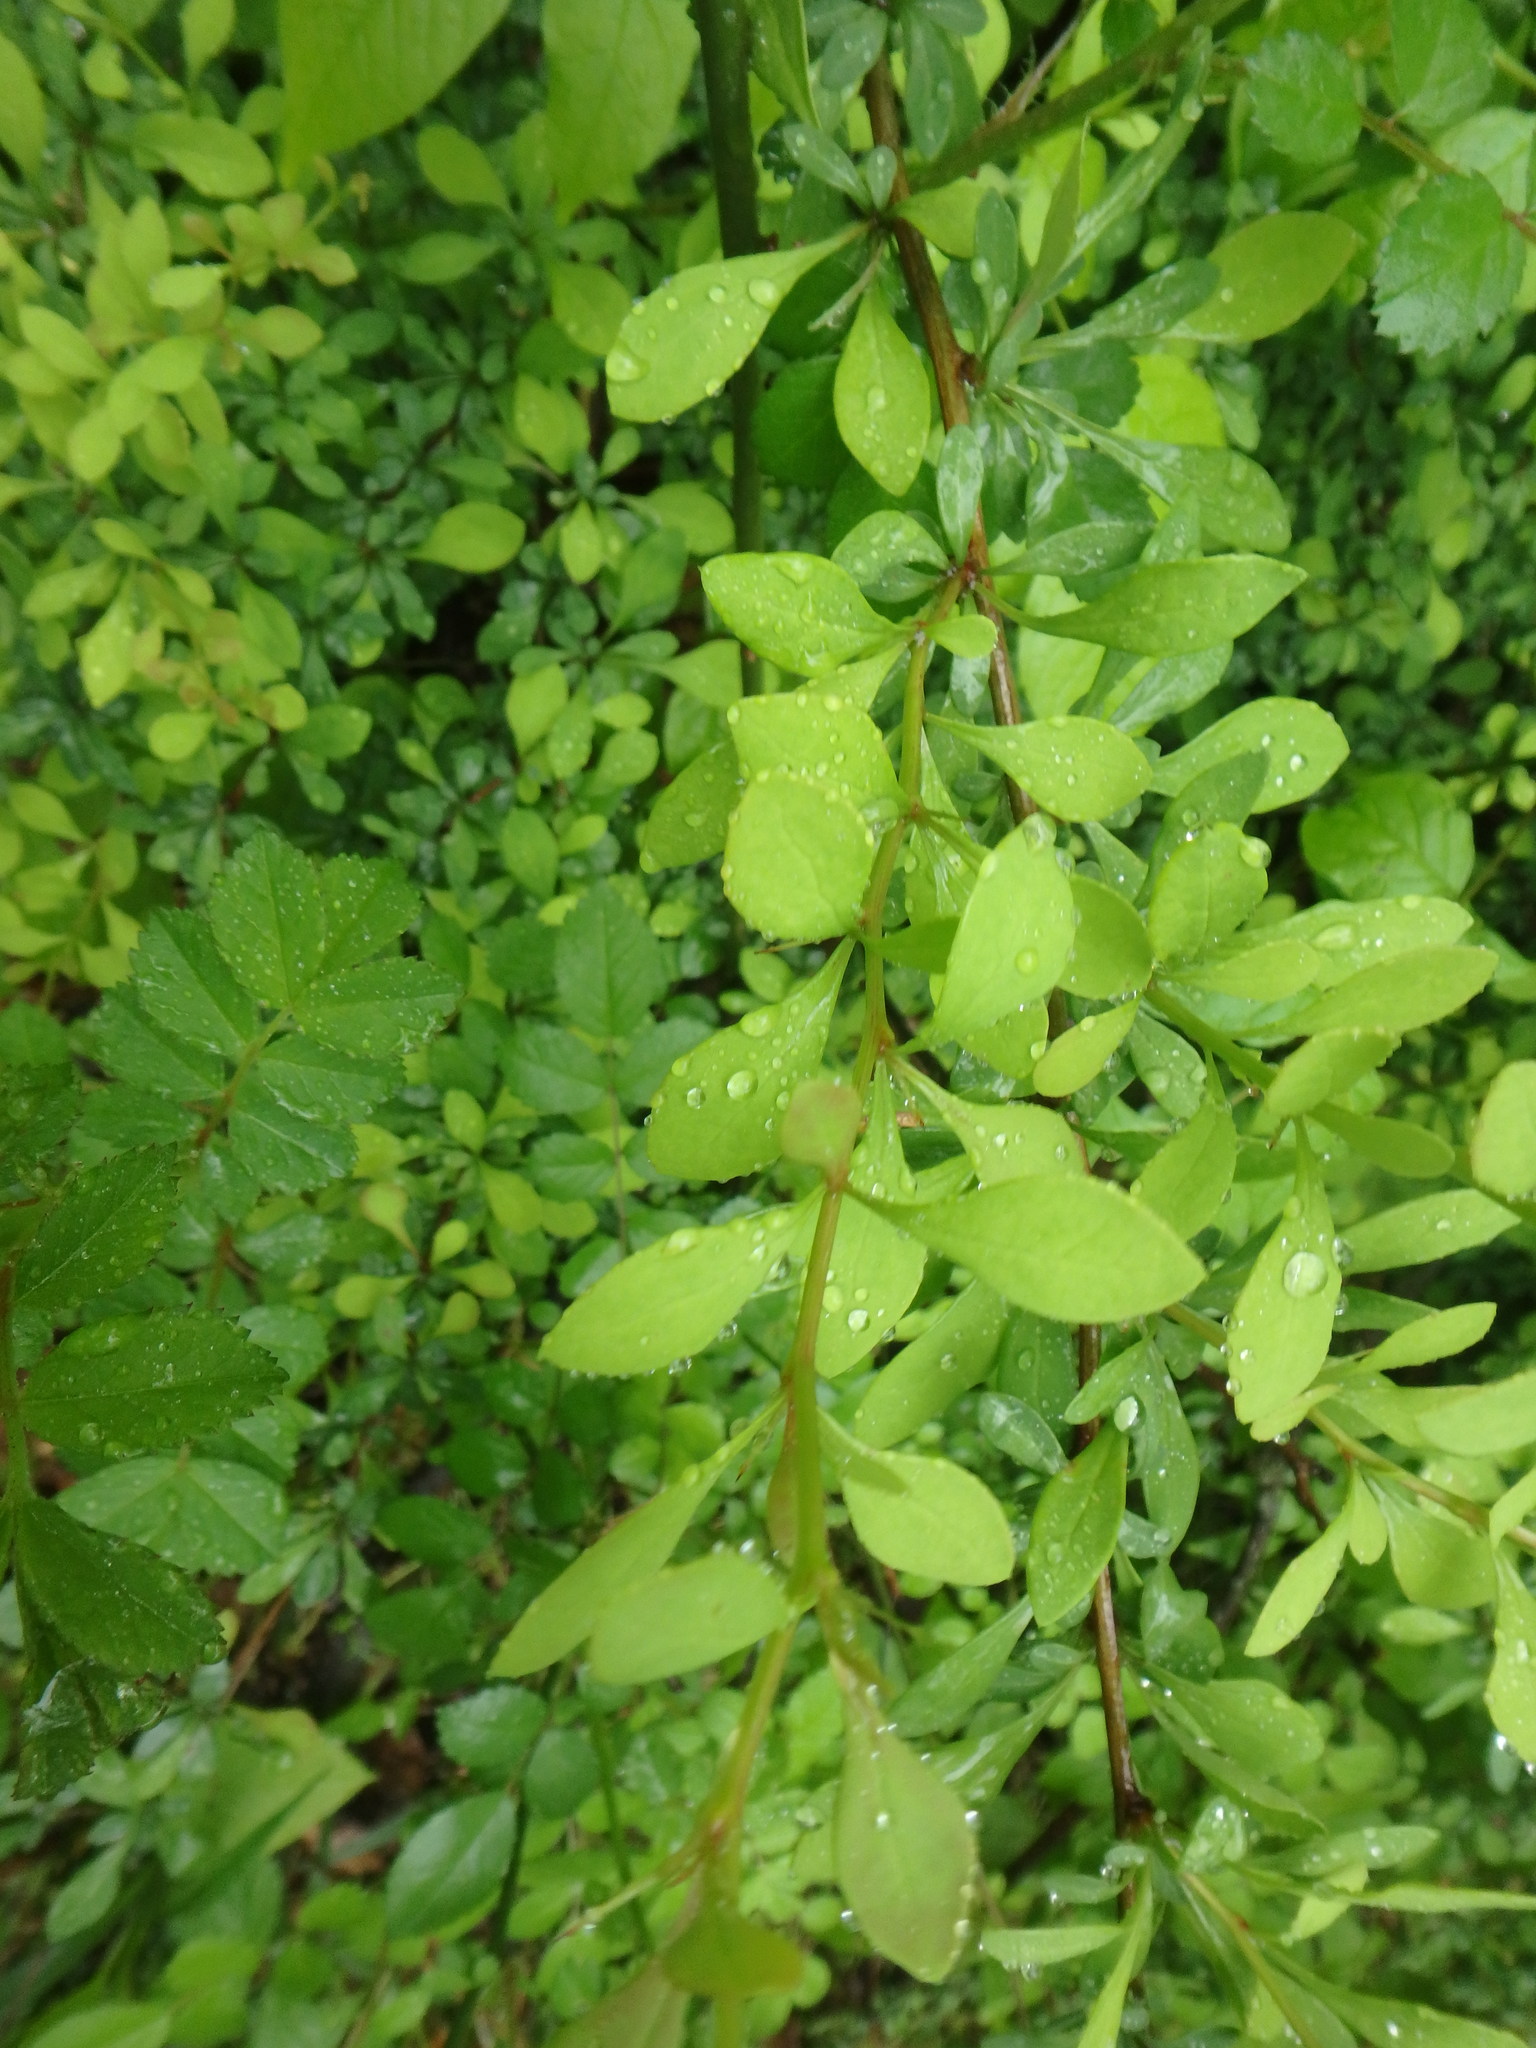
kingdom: Plantae
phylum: Tracheophyta
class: Magnoliopsida
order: Ranunculales
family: Berberidaceae
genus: Berberis
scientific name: Berberis thunbergii
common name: Japanese barberry
